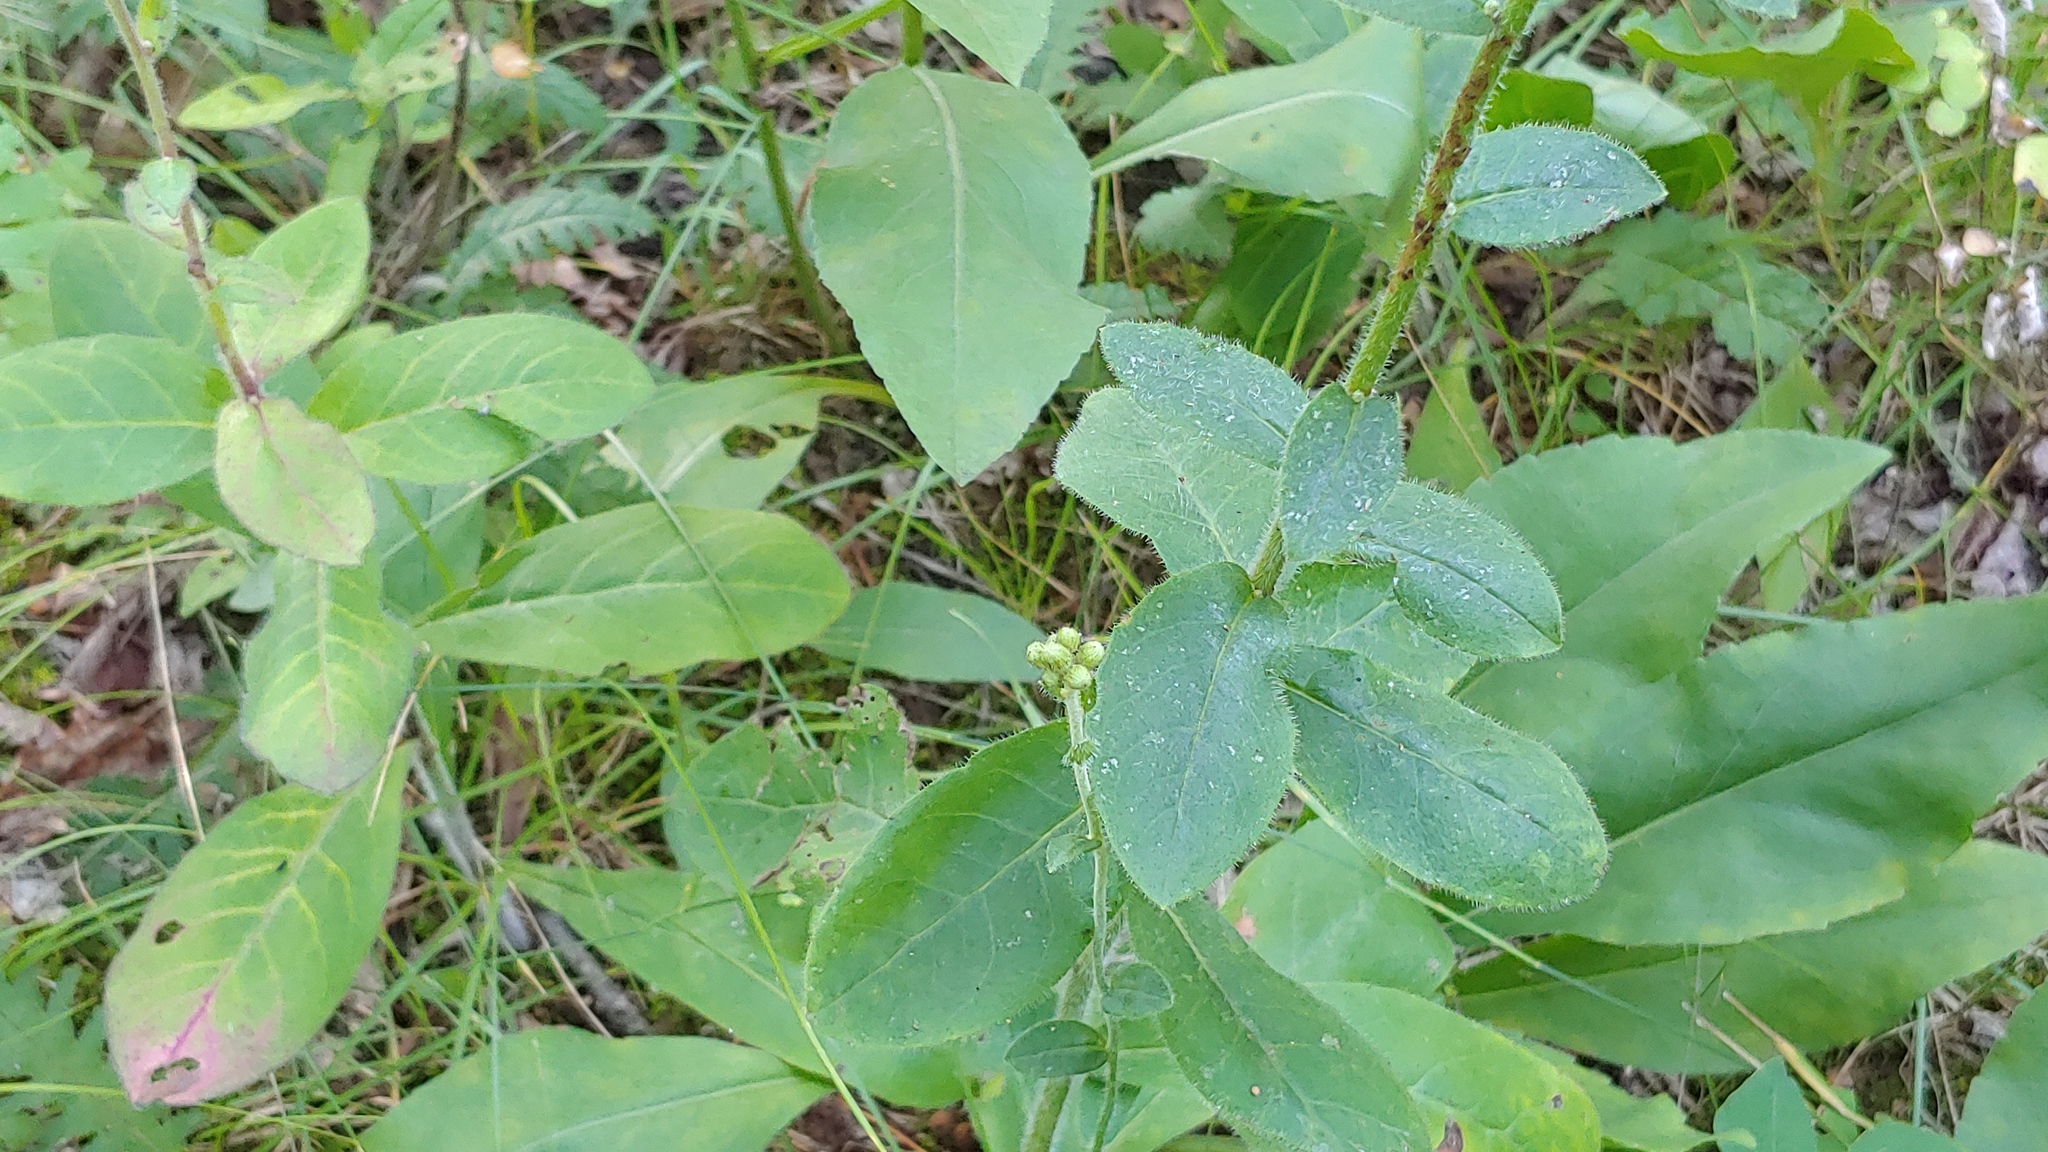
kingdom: Plantae
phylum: Tracheophyta
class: Magnoliopsida
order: Asterales
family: Asteraceae
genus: Hieracium
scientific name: Hieracium scabrum
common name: Rough hawkweed
